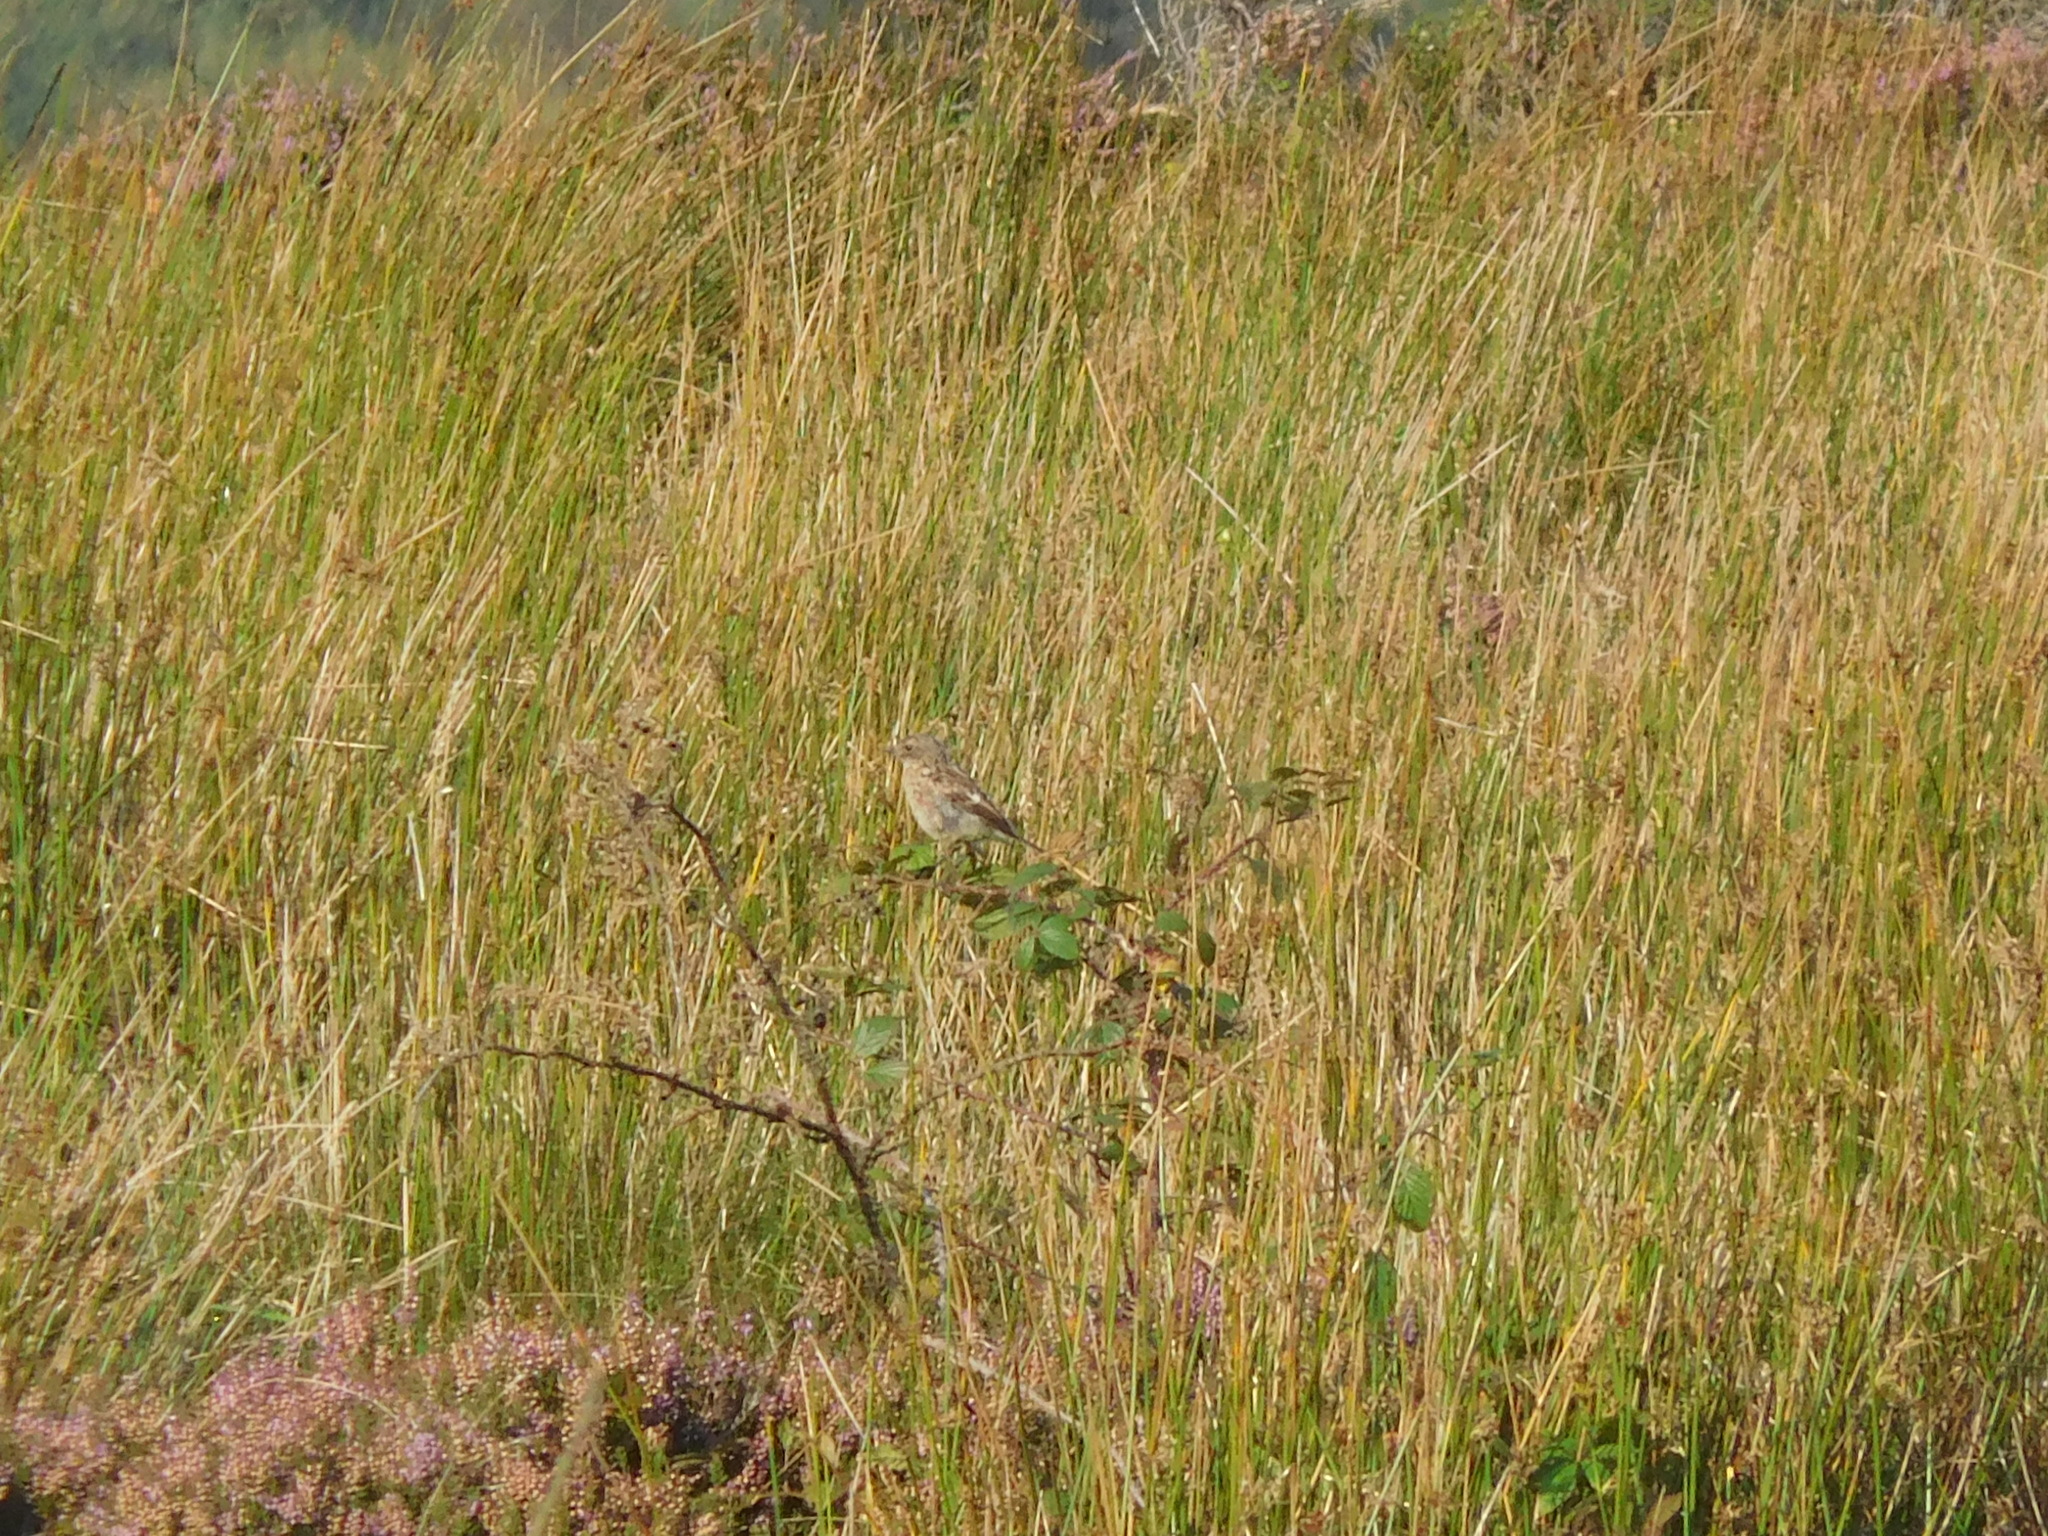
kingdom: Animalia
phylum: Chordata
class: Aves
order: Passeriformes
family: Muscicapidae
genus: Saxicola
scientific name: Saxicola rubicola
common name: European stonechat
